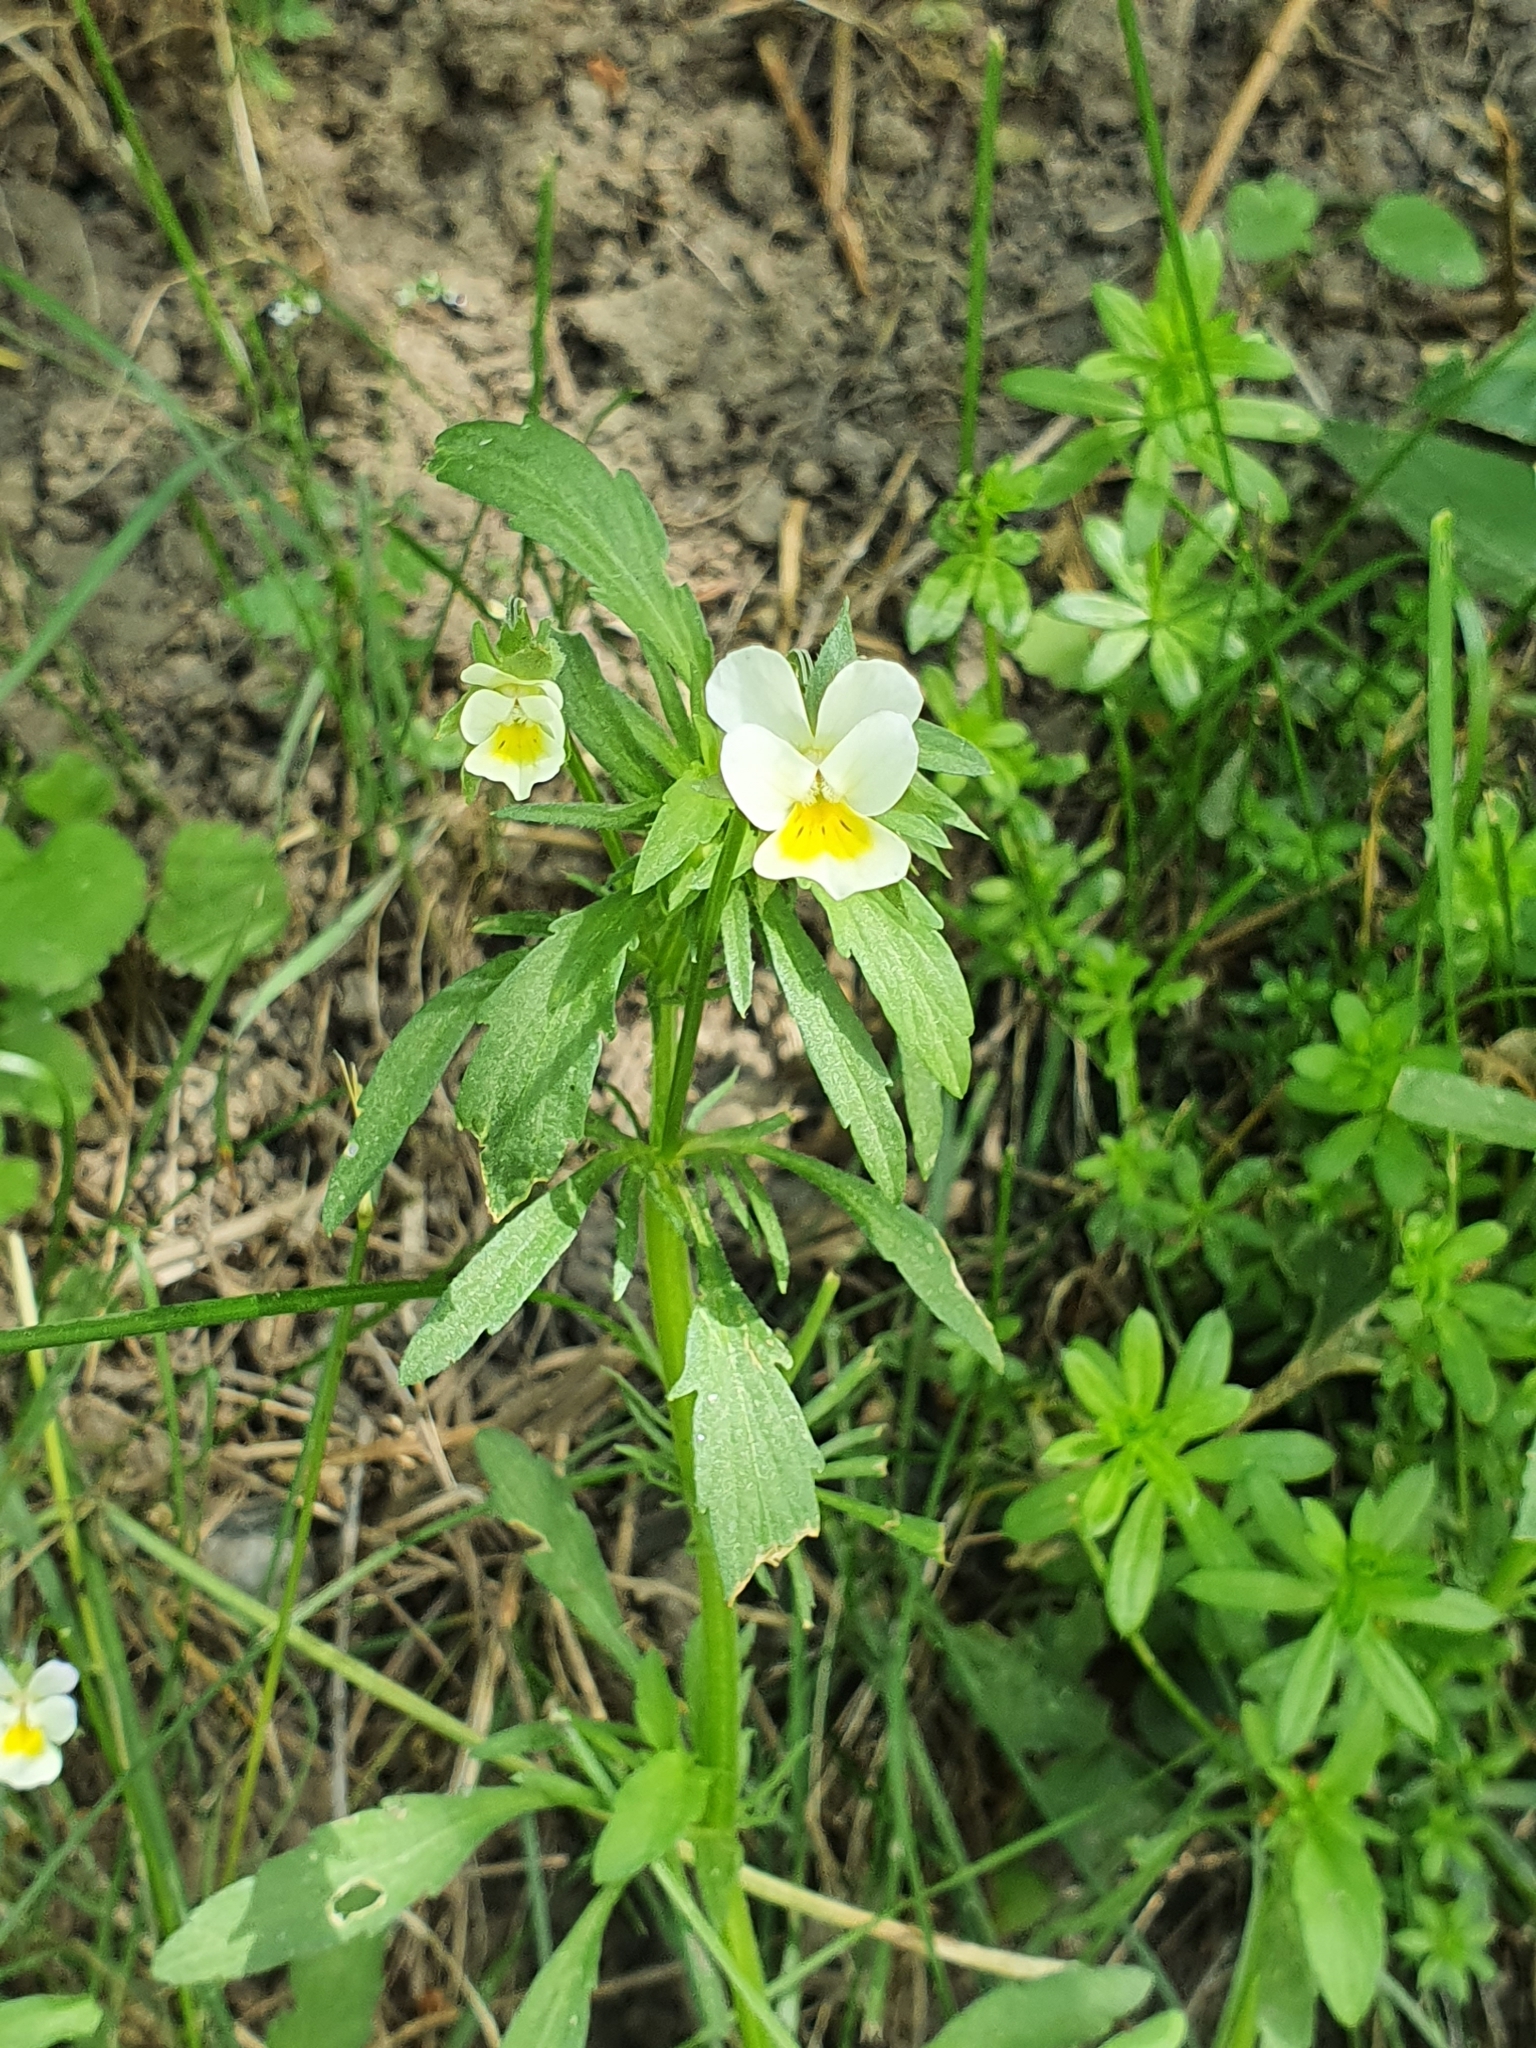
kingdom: Plantae
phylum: Tracheophyta
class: Magnoliopsida
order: Malpighiales
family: Violaceae
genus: Viola
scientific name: Viola arvensis
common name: Field pansy
